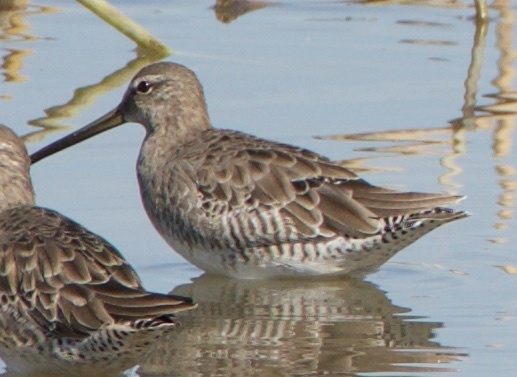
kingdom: Animalia
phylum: Chordata
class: Aves
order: Charadriiformes
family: Scolopacidae
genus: Limnodromus
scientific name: Limnodromus scolopaceus
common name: Long-billed dowitcher
